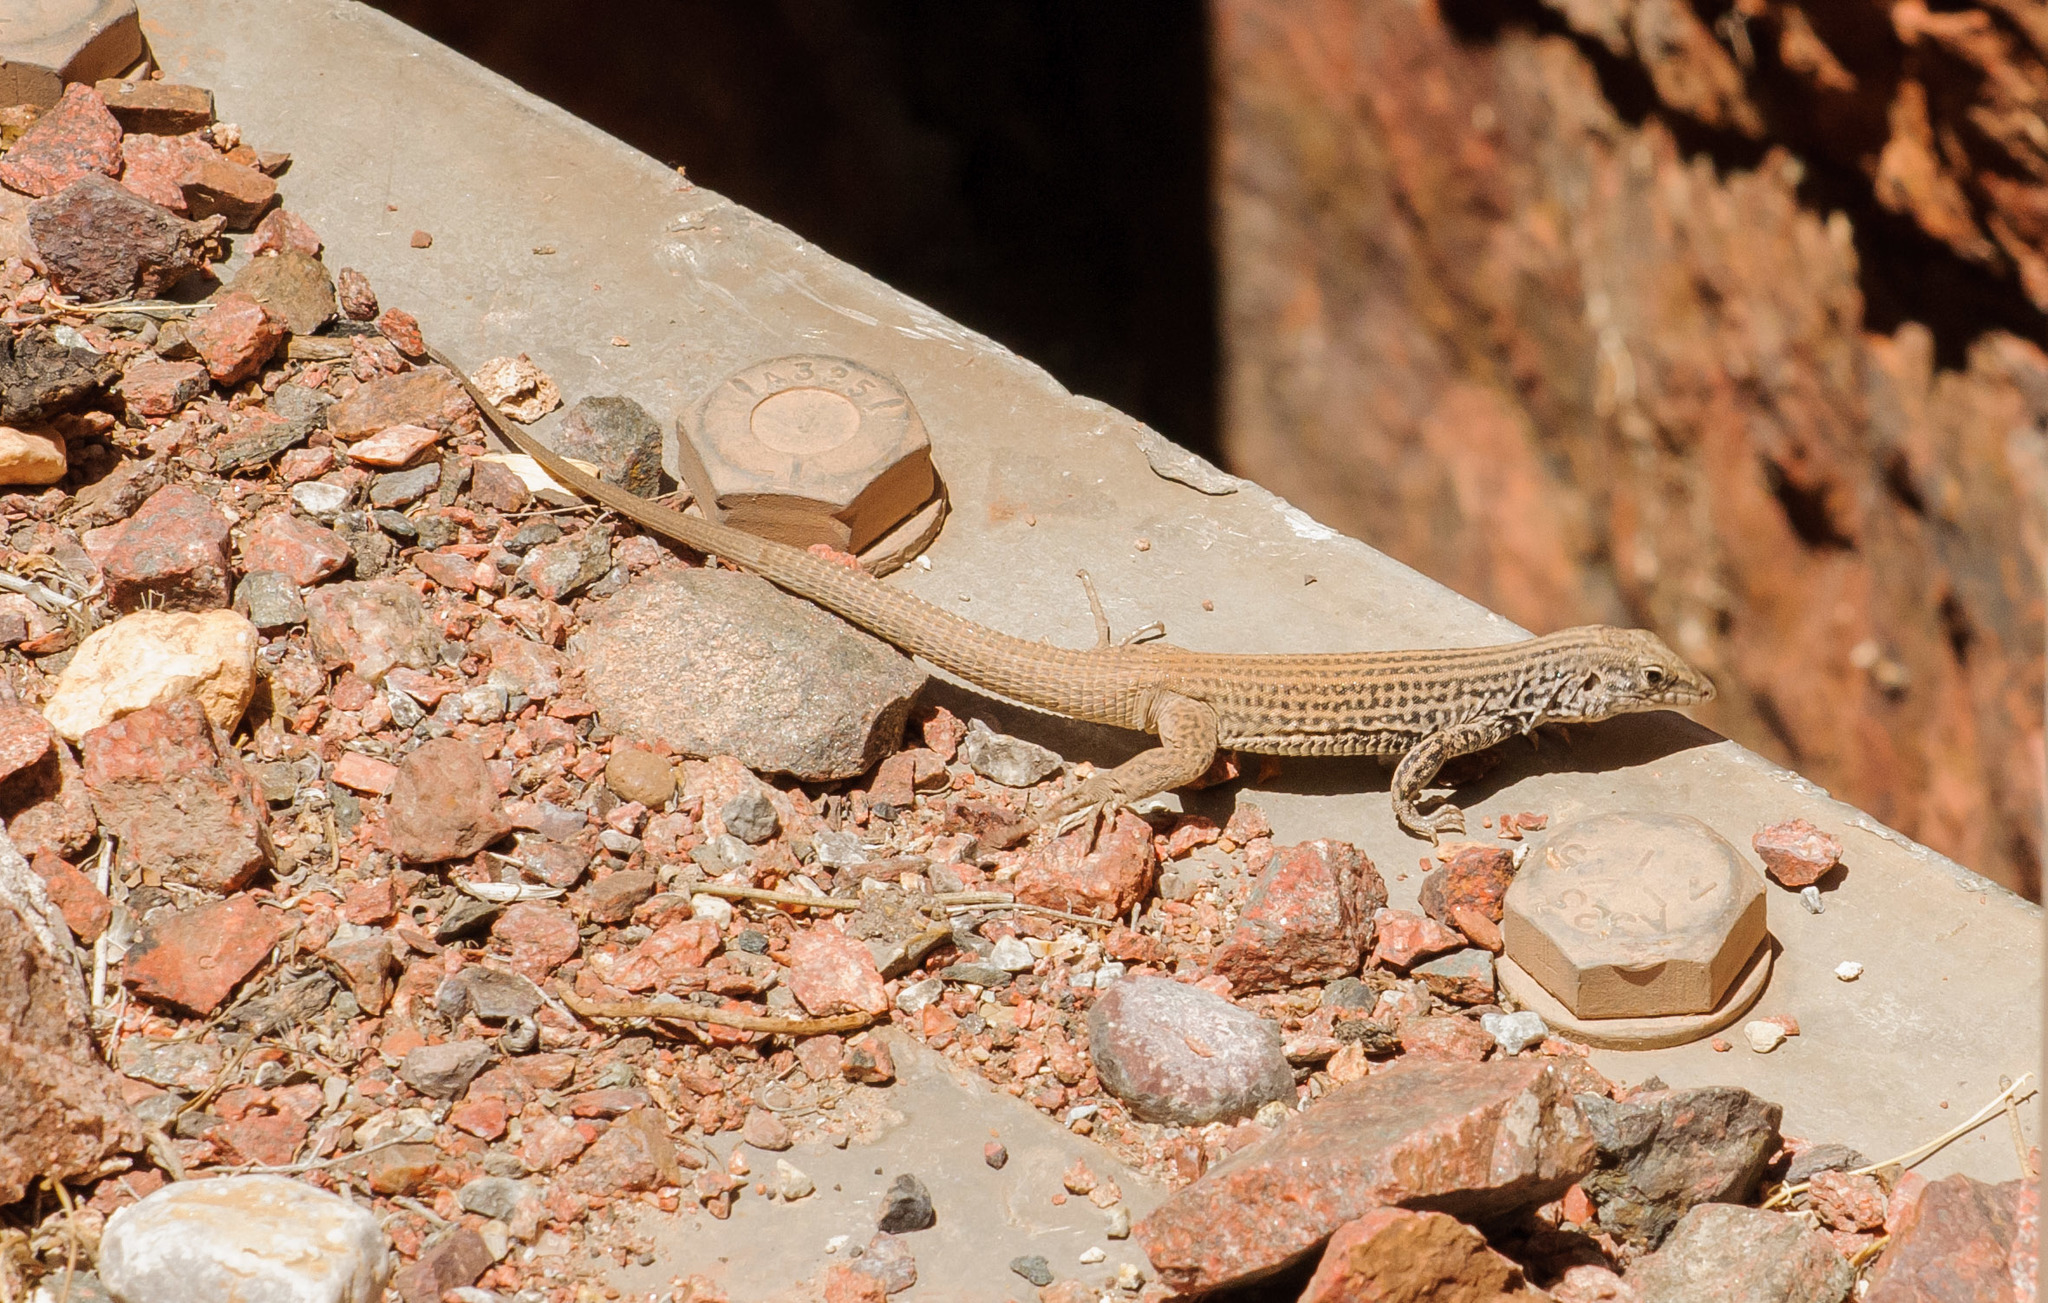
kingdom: Animalia
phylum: Chordata
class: Squamata
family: Teiidae
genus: Aspidoscelis
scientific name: Aspidoscelis tigris
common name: Tiger whiptail
